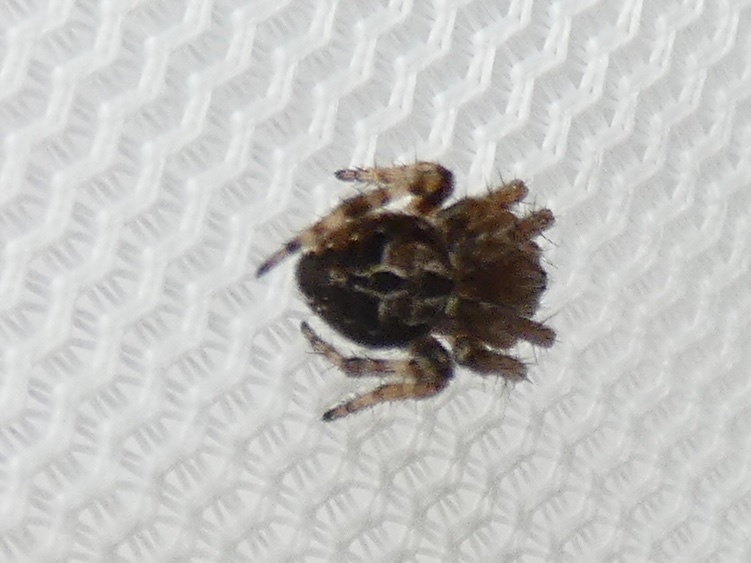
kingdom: Animalia
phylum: Arthropoda
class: Arachnida
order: Araneae
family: Araneidae
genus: Agalenatea
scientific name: Agalenatea redii
